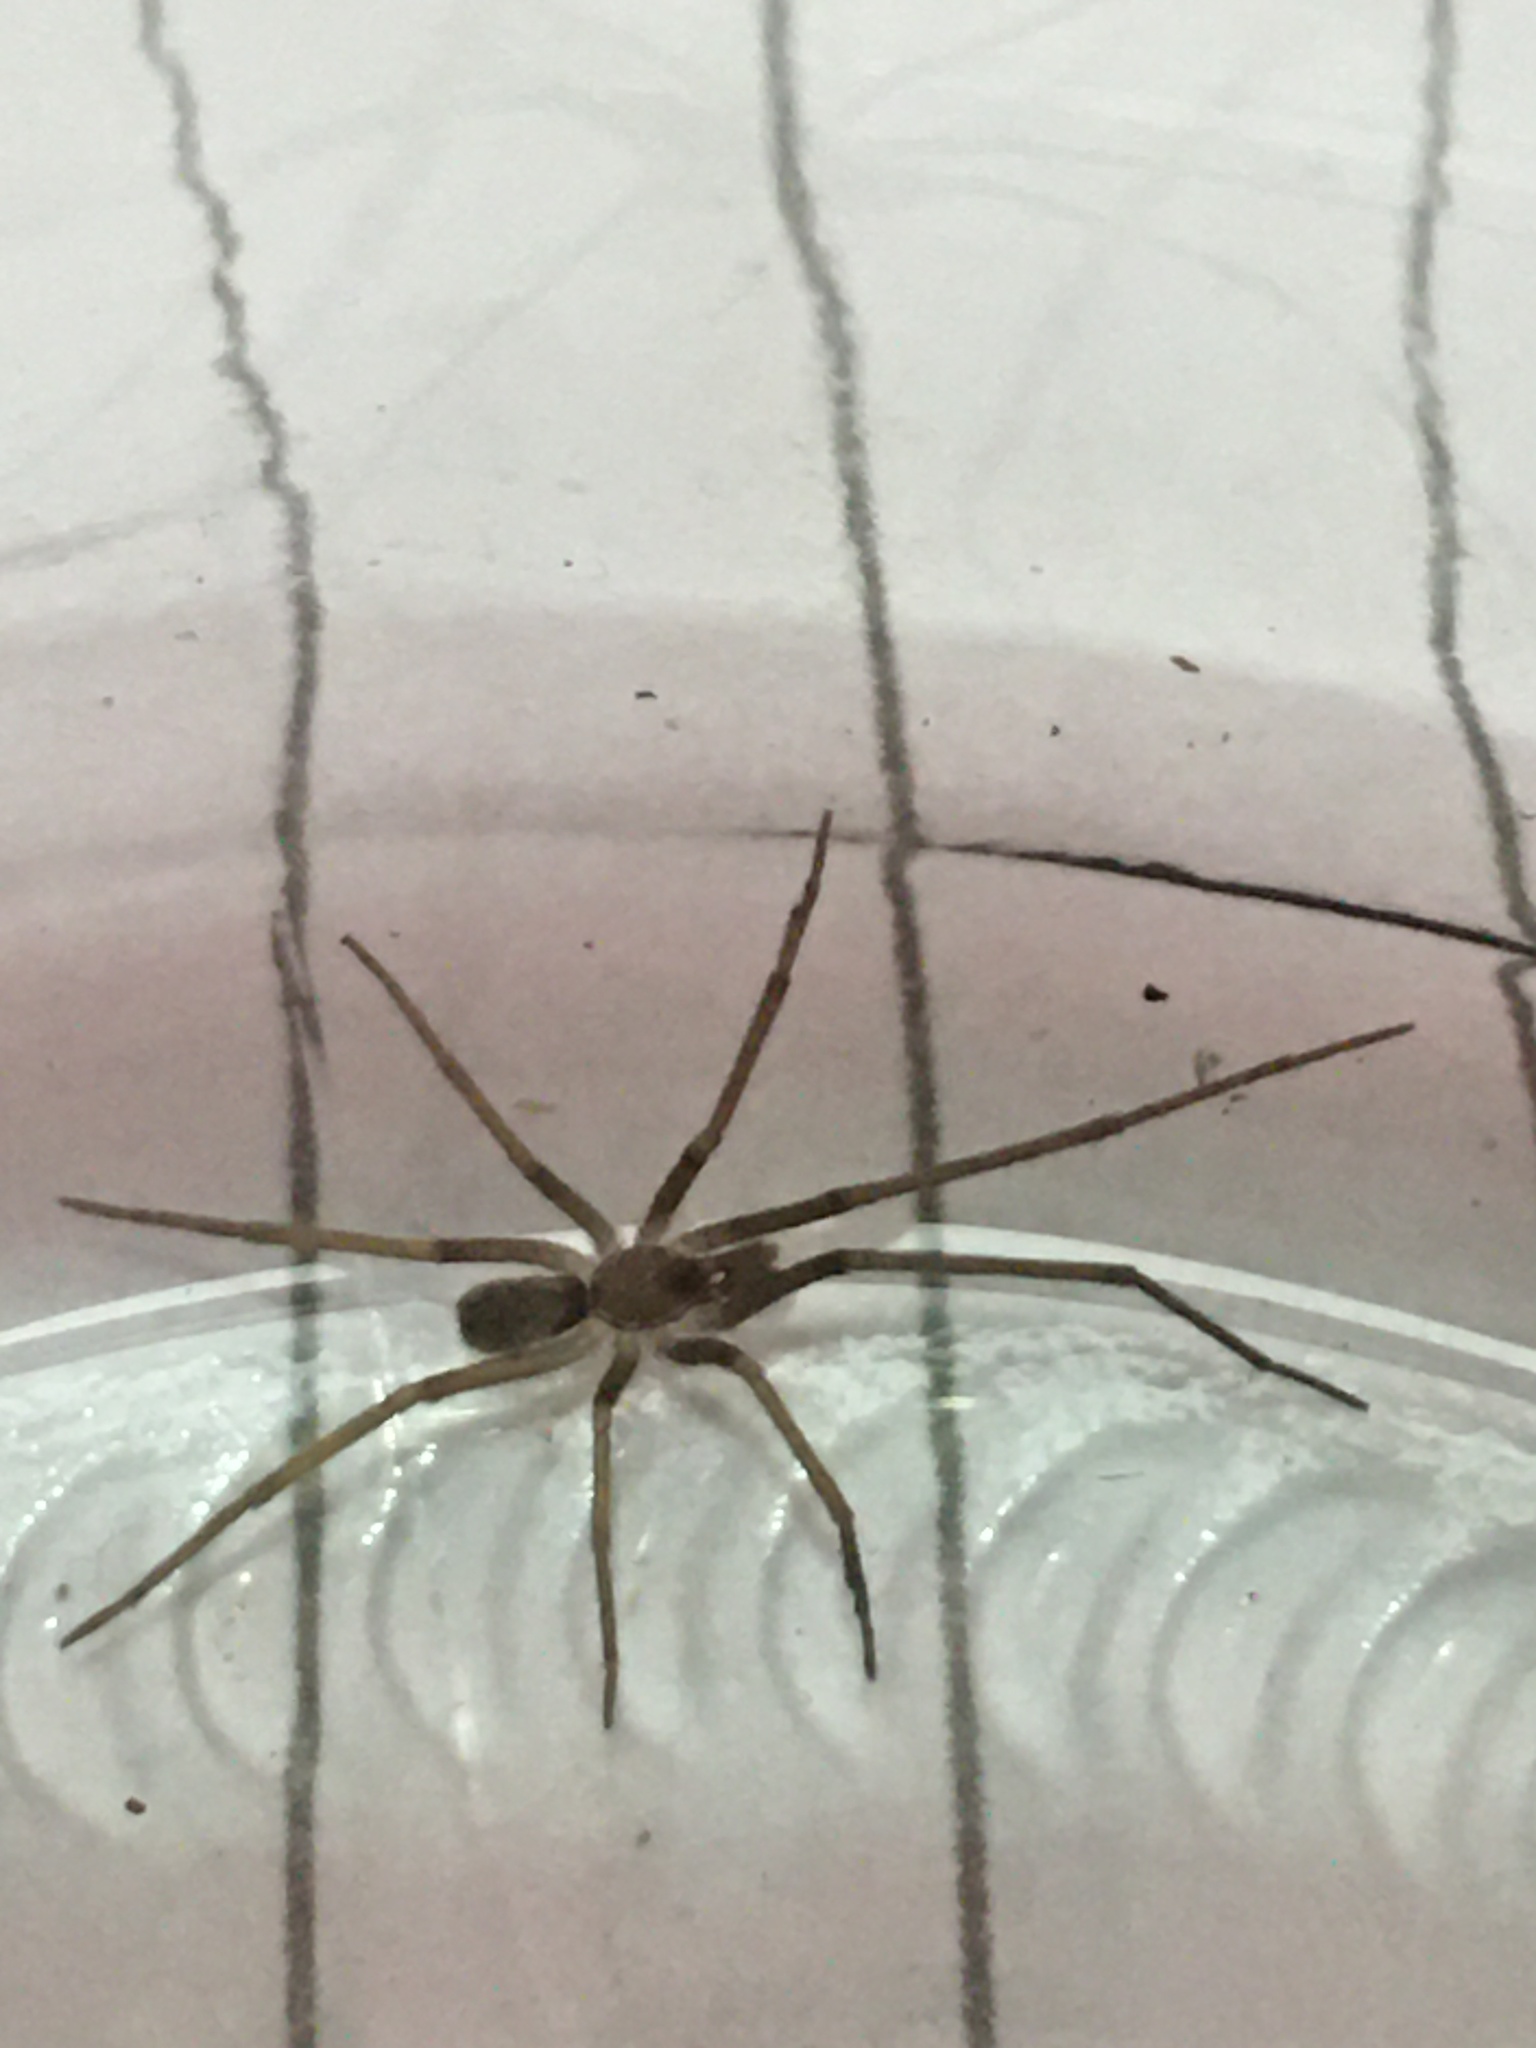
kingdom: Animalia
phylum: Arthropoda
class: Arachnida
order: Araneae
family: Filistatidae
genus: Pikelinia
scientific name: Pikelinia tambilloi
